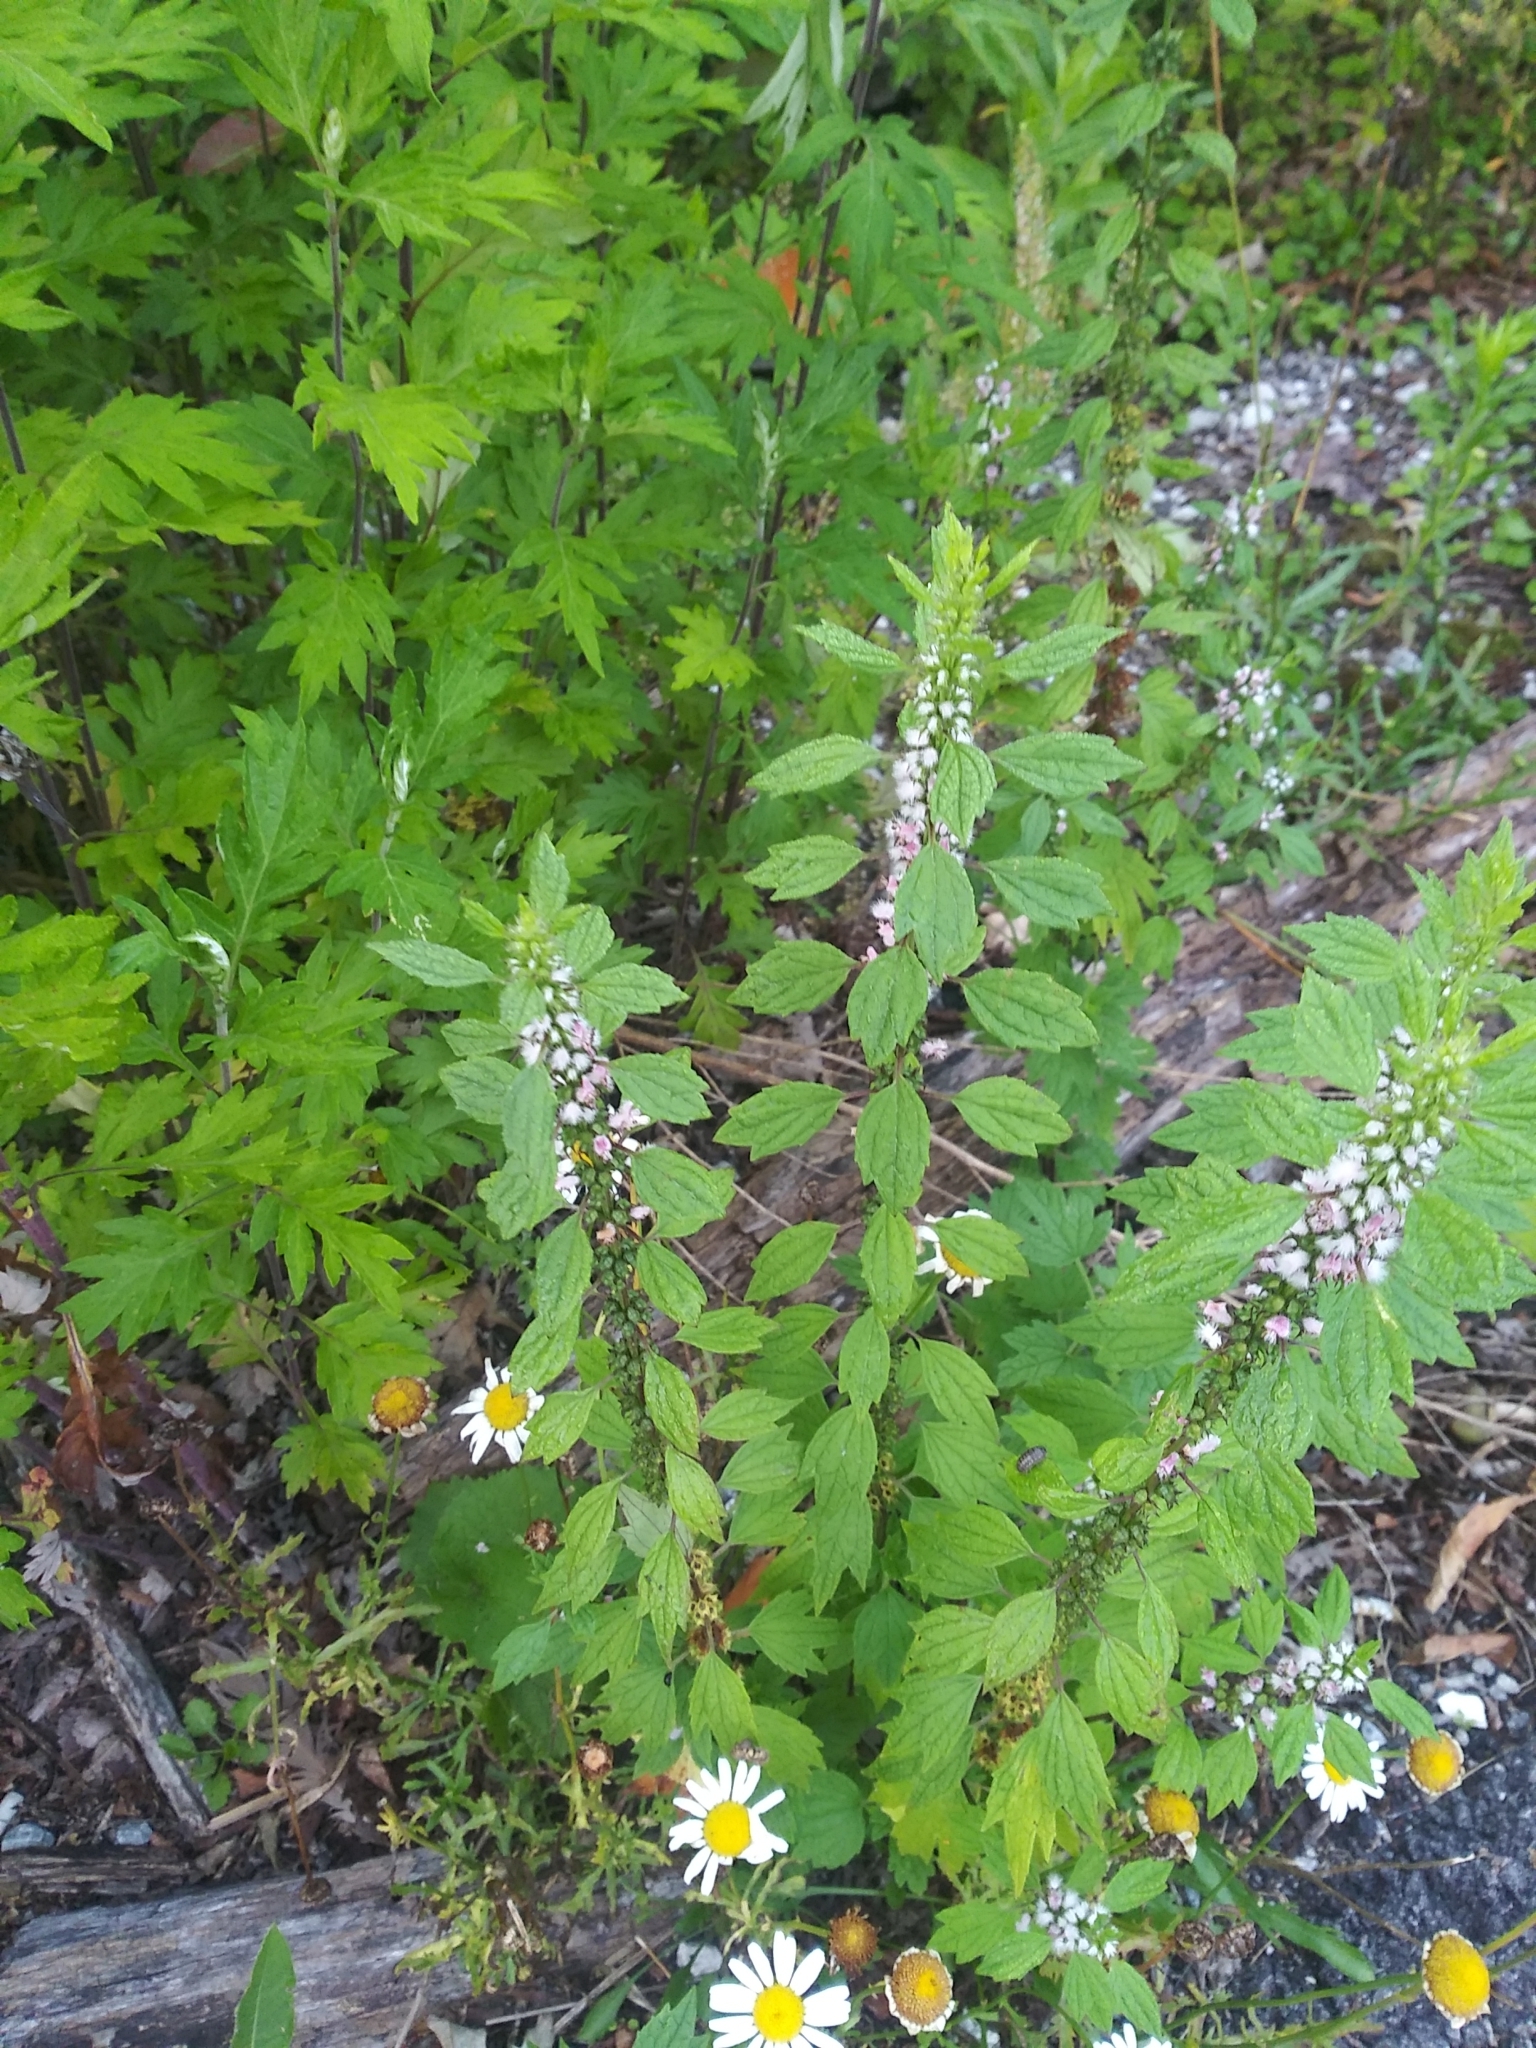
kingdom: Plantae
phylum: Tracheophyta
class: Magnoliopsida
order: Lamiales
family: Lamiaceae
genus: Leonurus
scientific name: Leonurus cardiaca
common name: Motherwort
